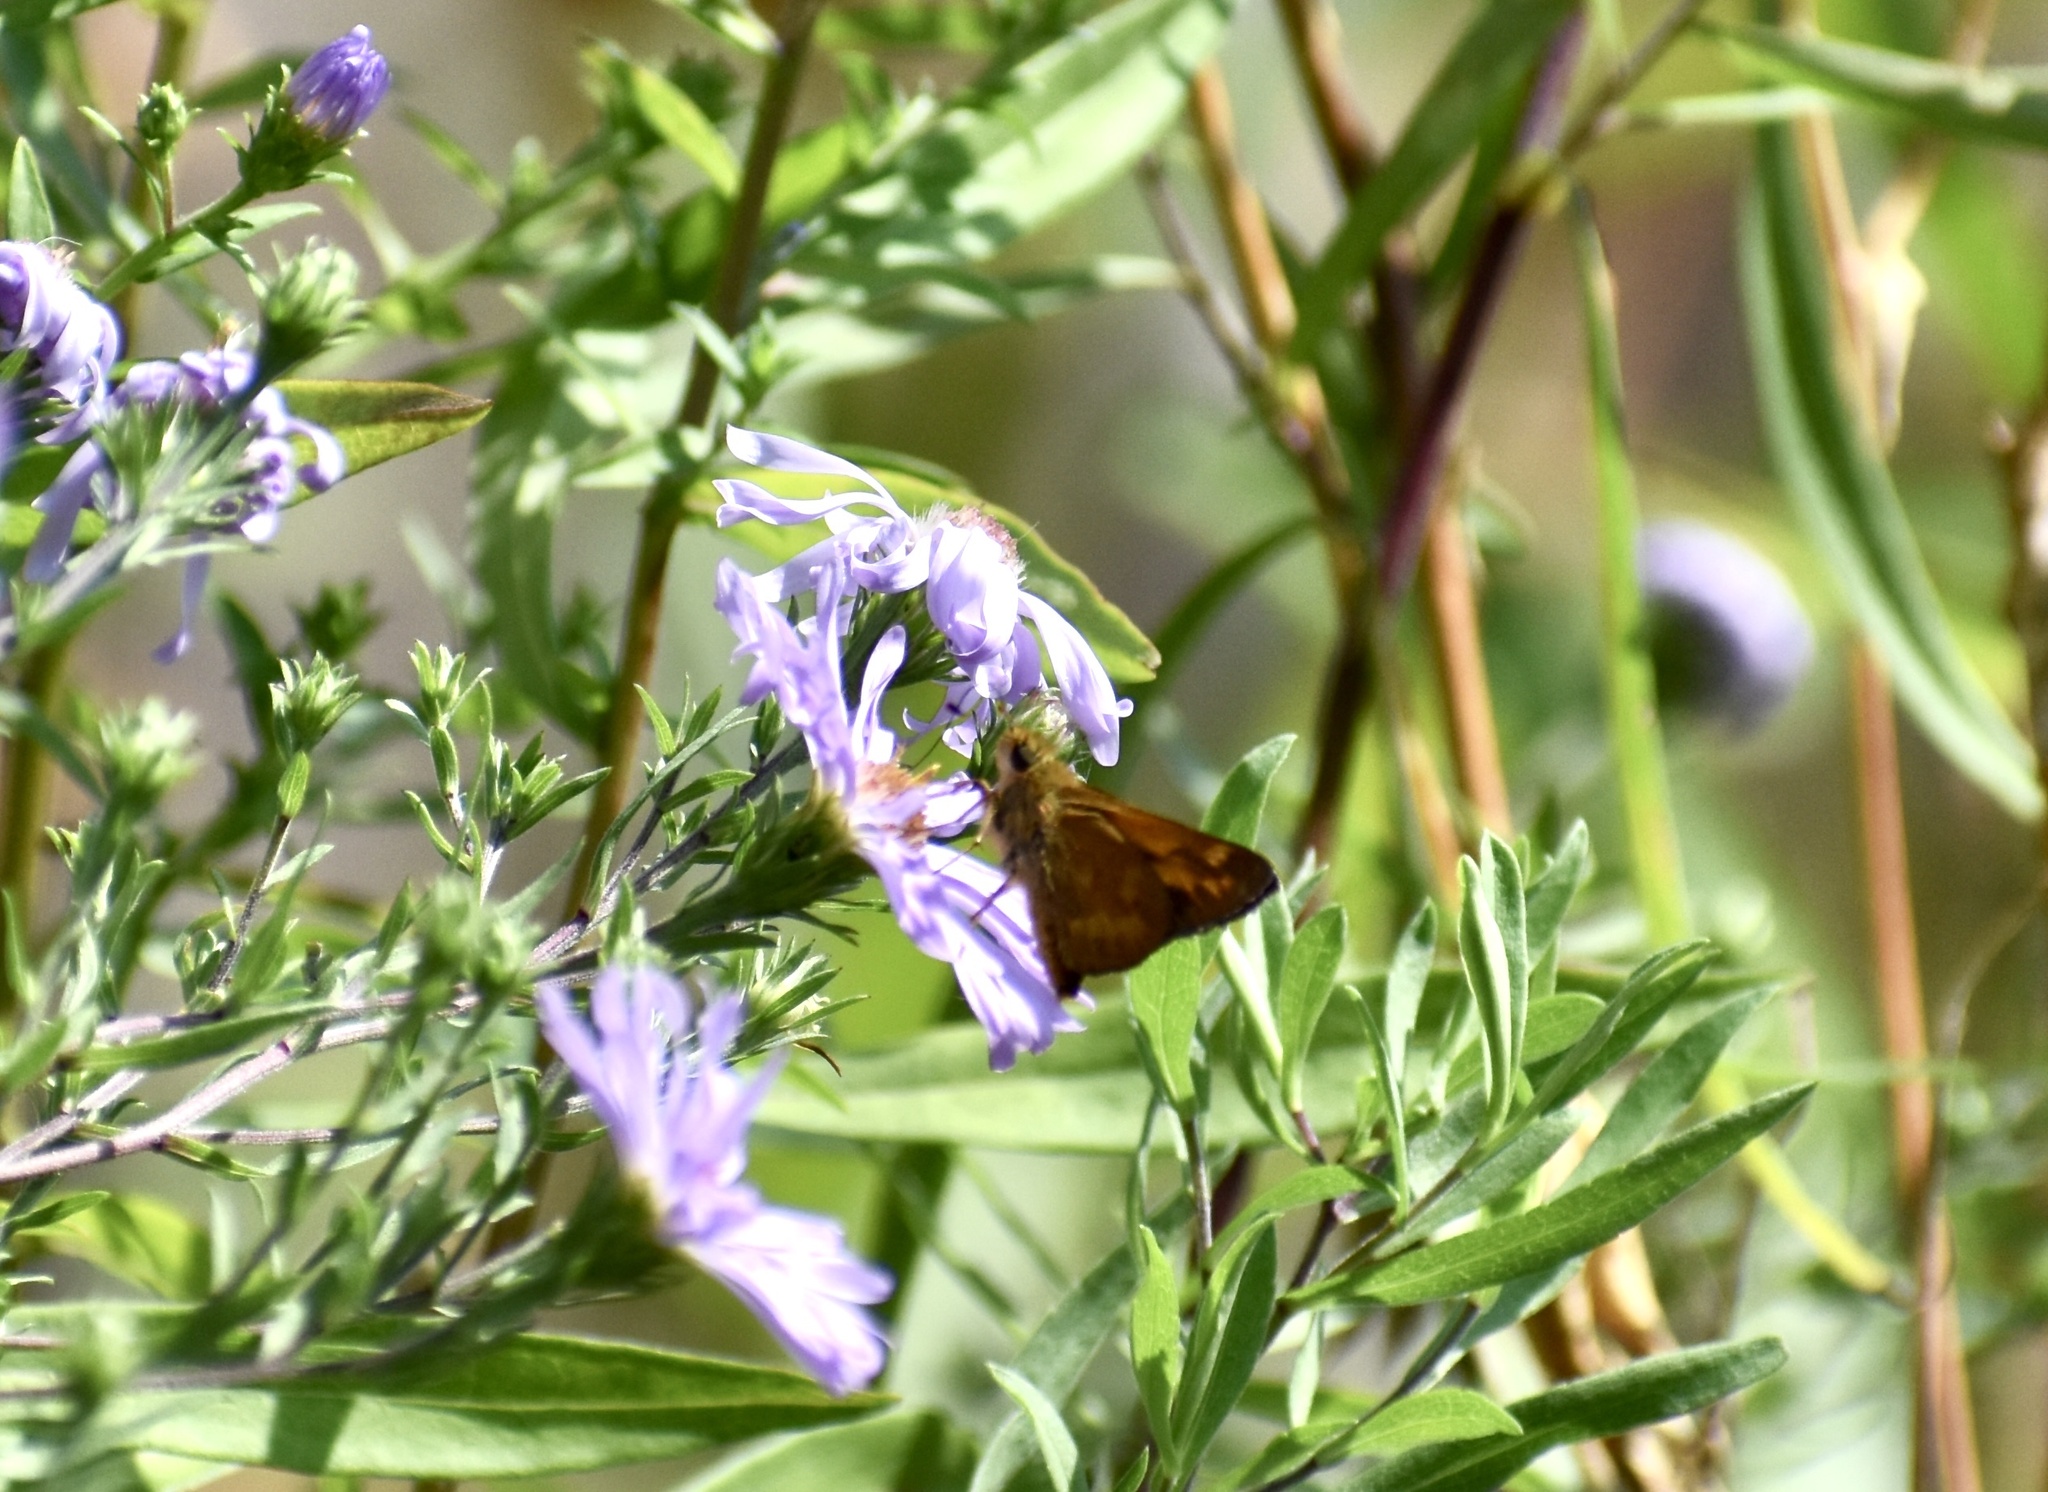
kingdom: Animalia
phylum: Arthropoda
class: Insecta
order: Lepidoptera
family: Hesperiidae
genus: Ochlodes
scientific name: Ochlodes sylvanoides
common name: Woodland skipper
